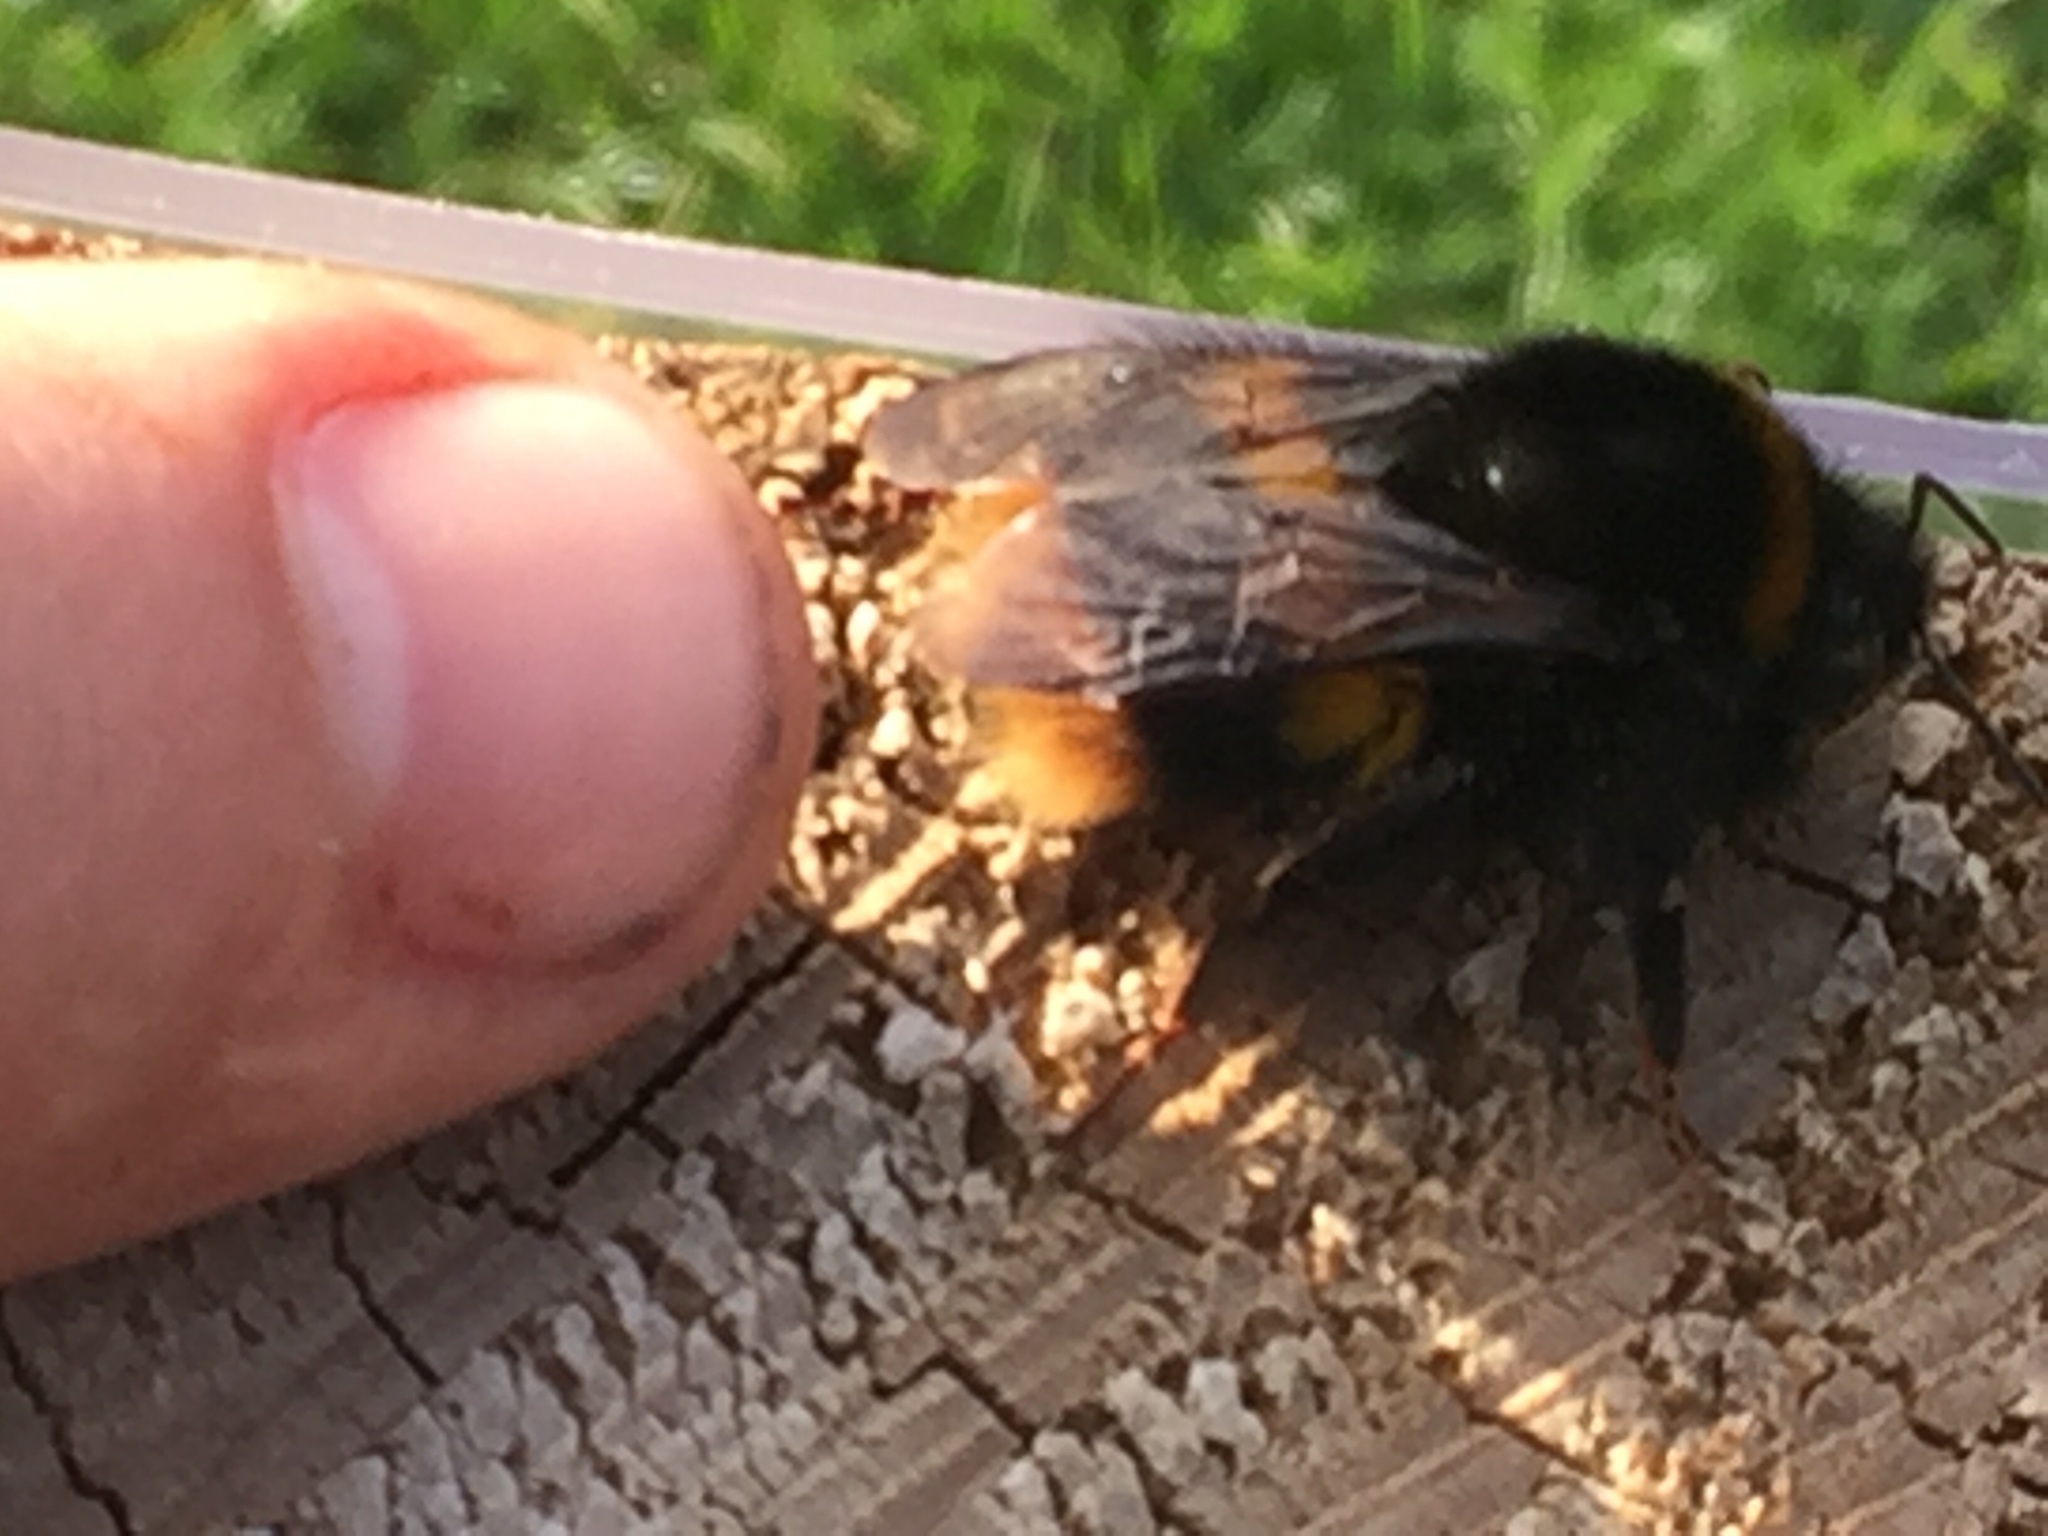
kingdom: Animalia
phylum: Arthropoda
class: Insecta
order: Hymenoptera
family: Apidae
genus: Bombus
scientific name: Bombus terrestris
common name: Buff-tailed bumblebee
